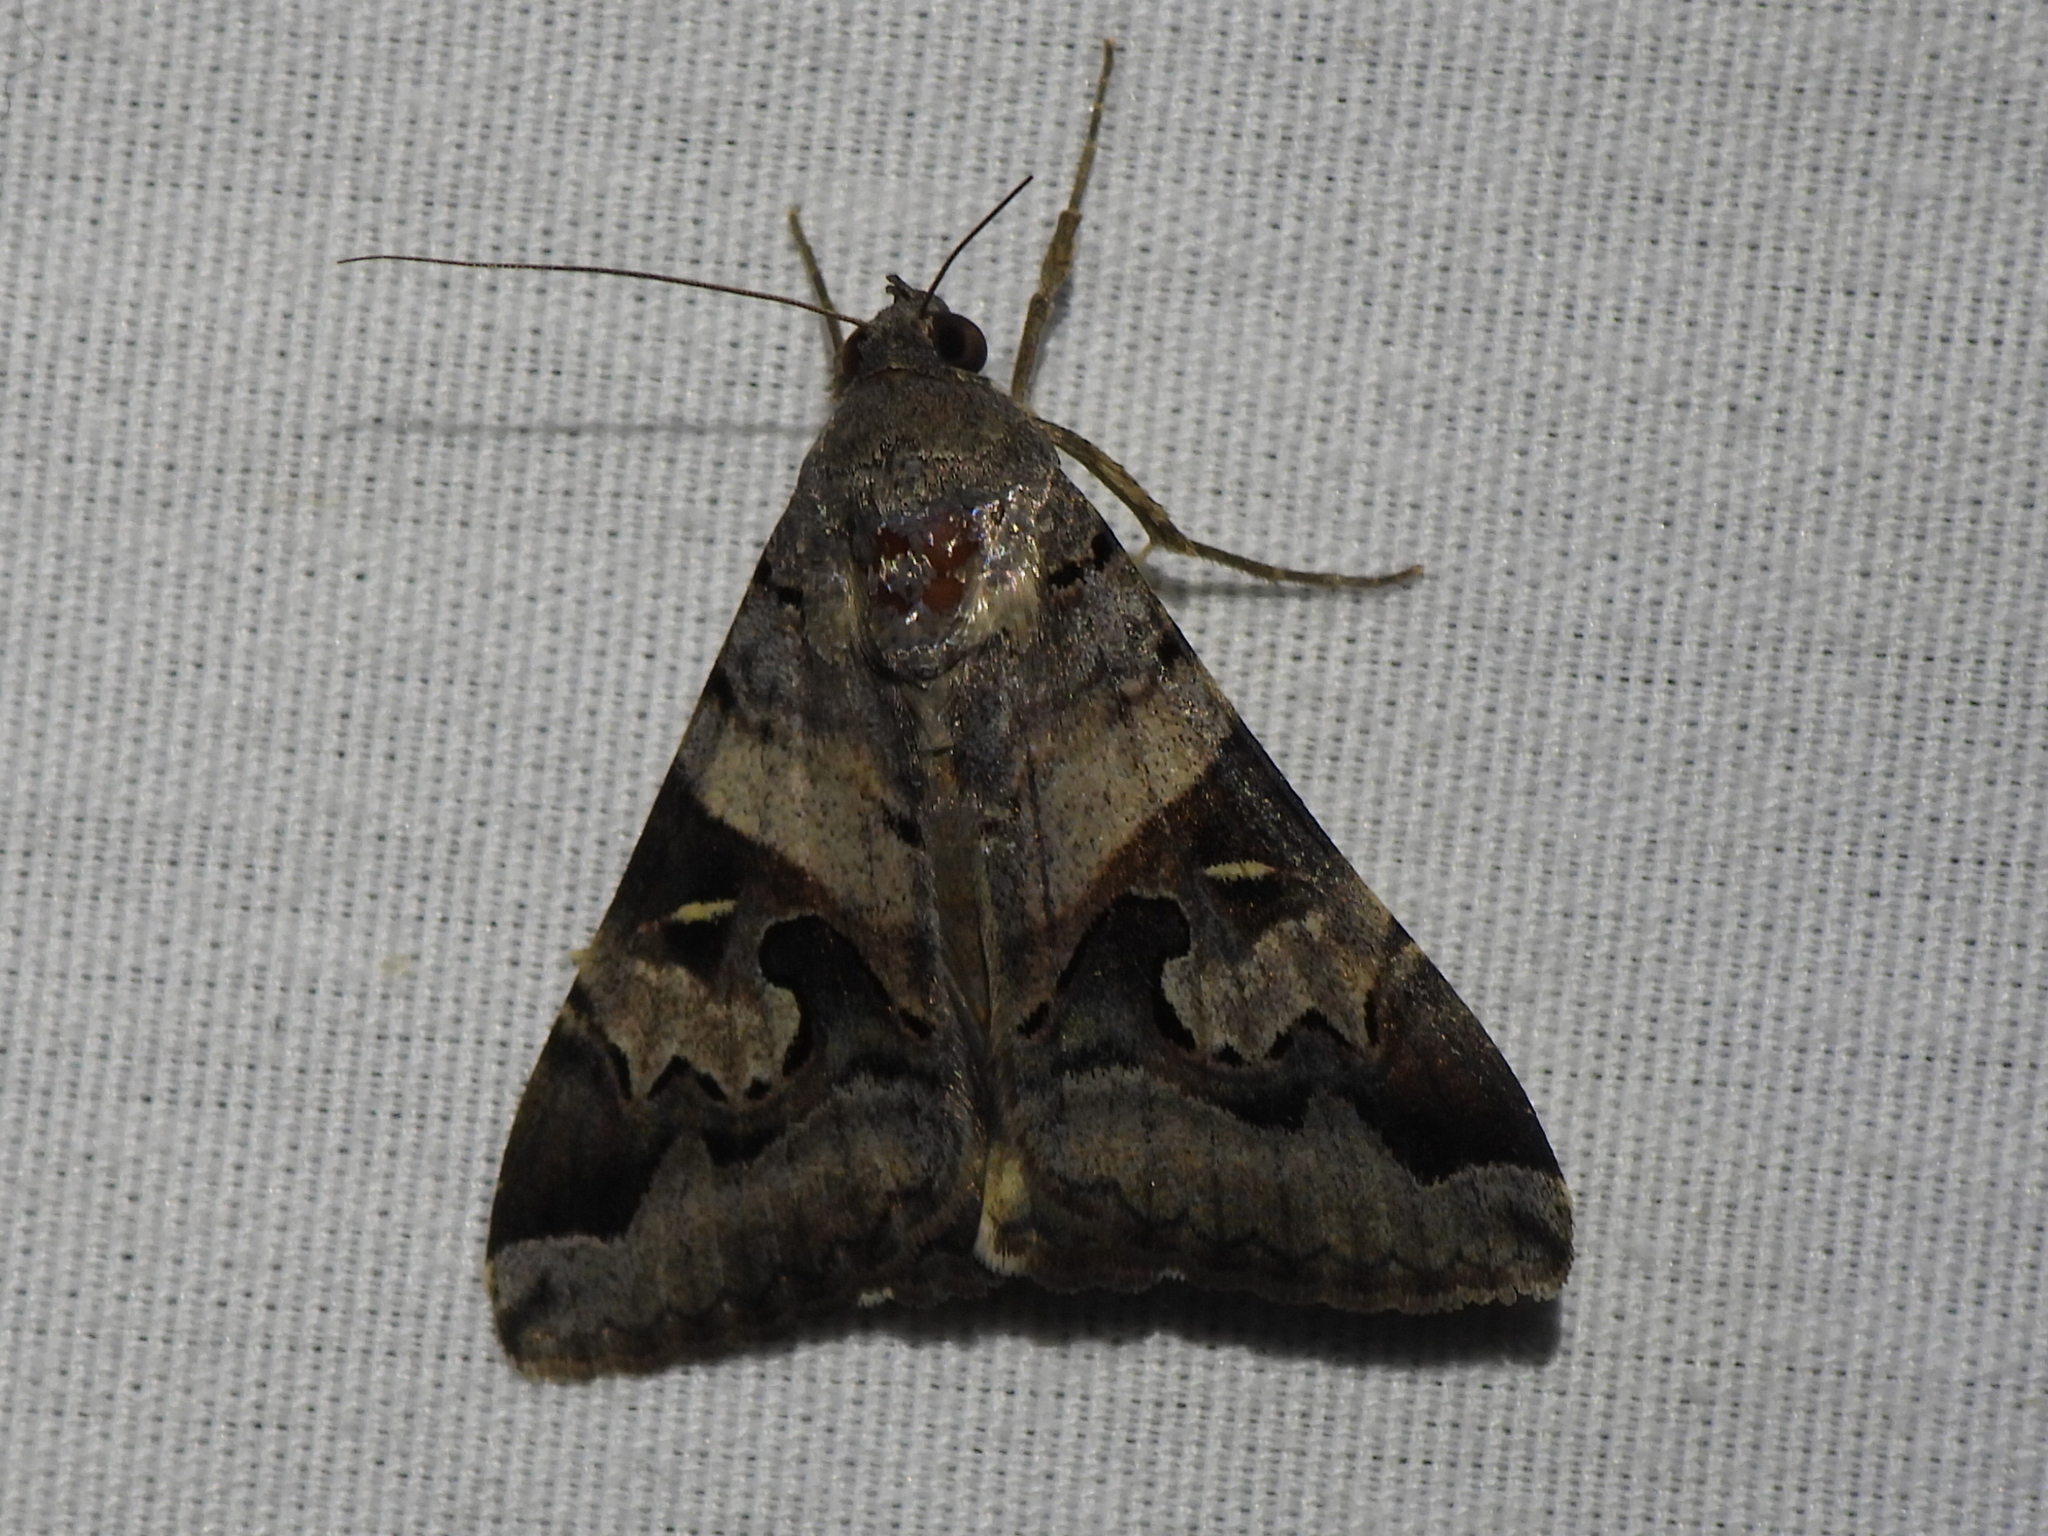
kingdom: Animalia
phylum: Arthropoda
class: Insecta
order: Lepidoptera
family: Erebidae
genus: Melipotis
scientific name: Melipotis indomita
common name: Moth
